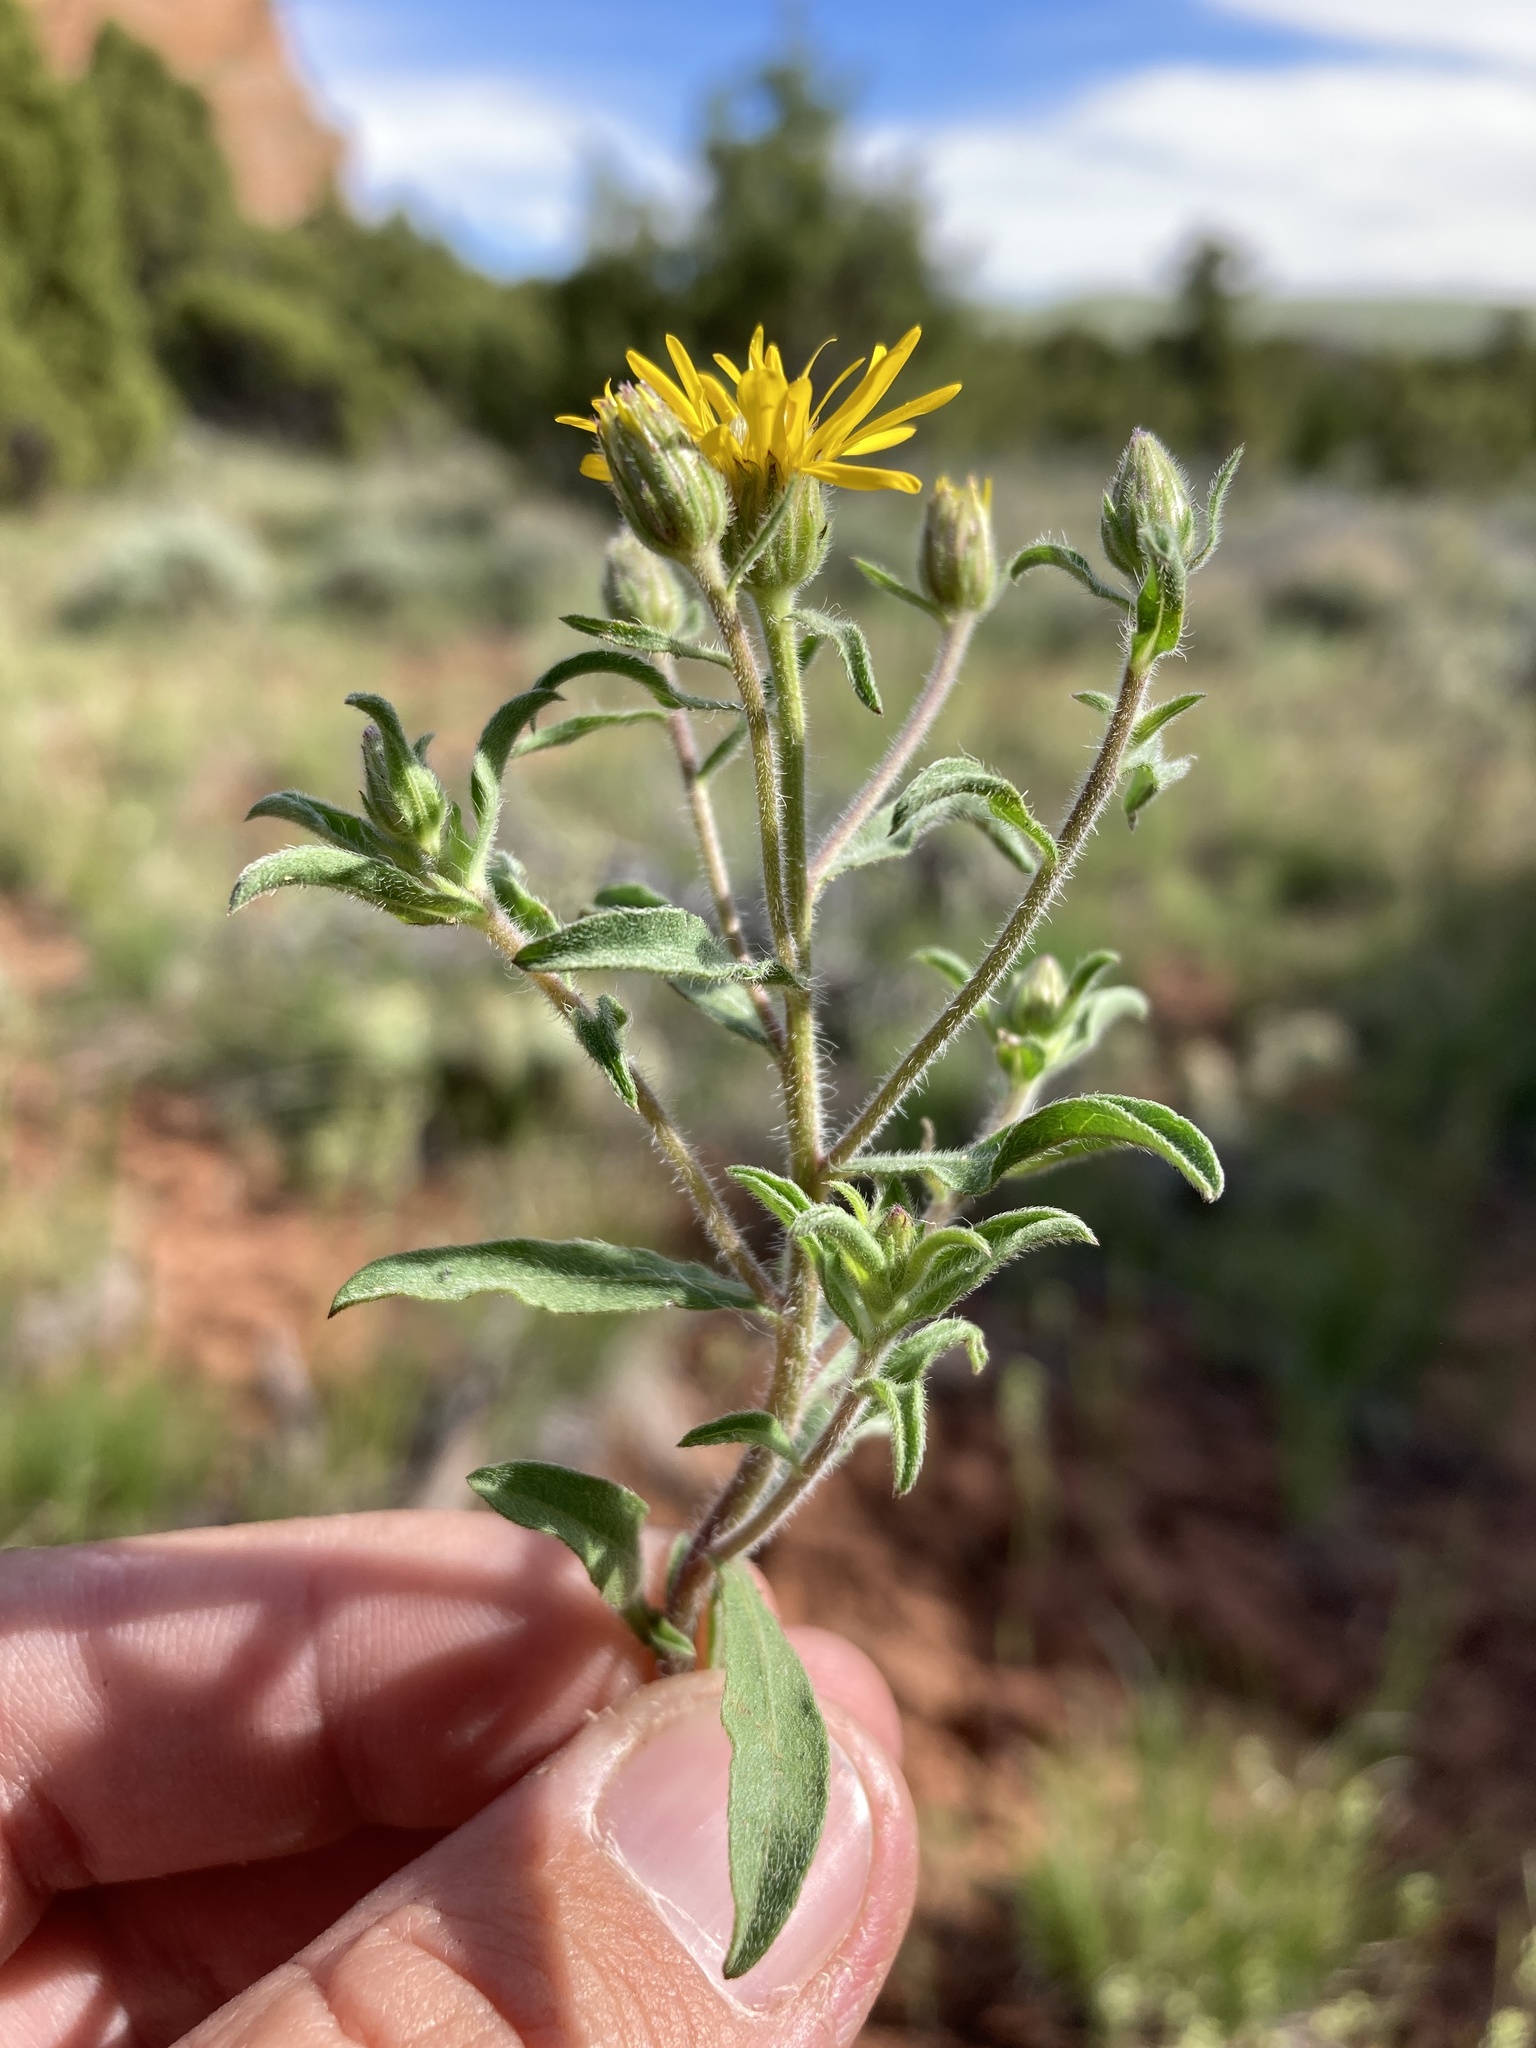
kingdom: Plantae
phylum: Tracheophyta
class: Magnoliopsida
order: Asterales
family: Asteraceae
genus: Heterotheca
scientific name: Heterotheca hispida
